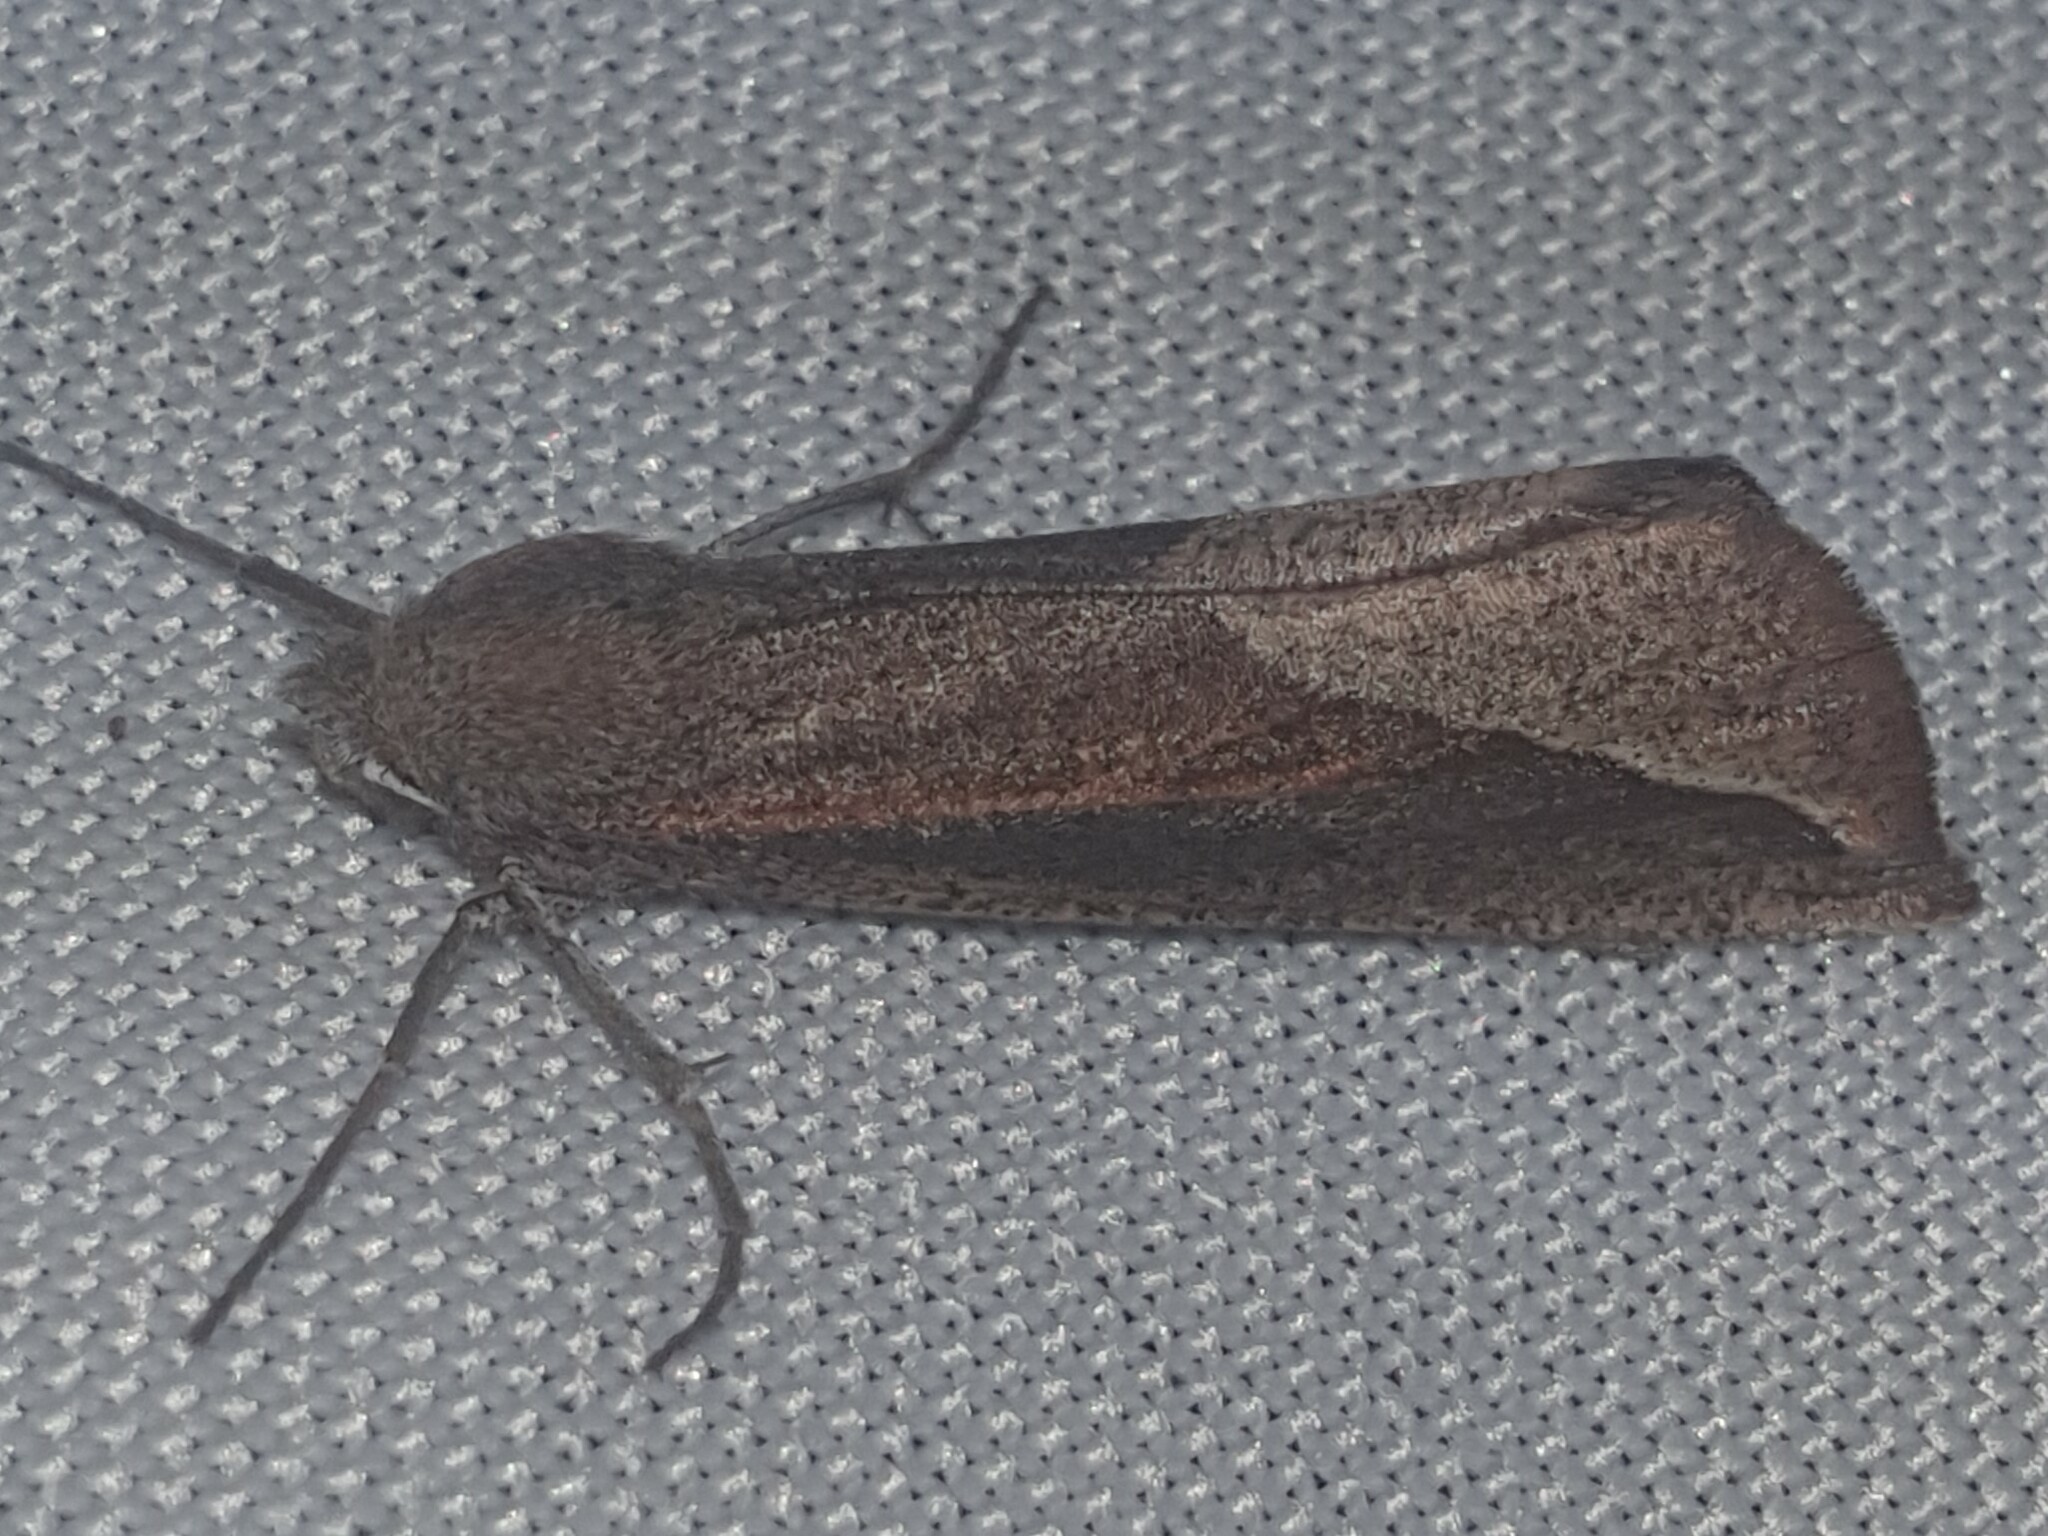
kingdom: Animalia
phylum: Arthropoda
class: Insecta
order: Lepidoptera
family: Geometridae
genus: Compsoptera
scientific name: Compsoptera opacaria
